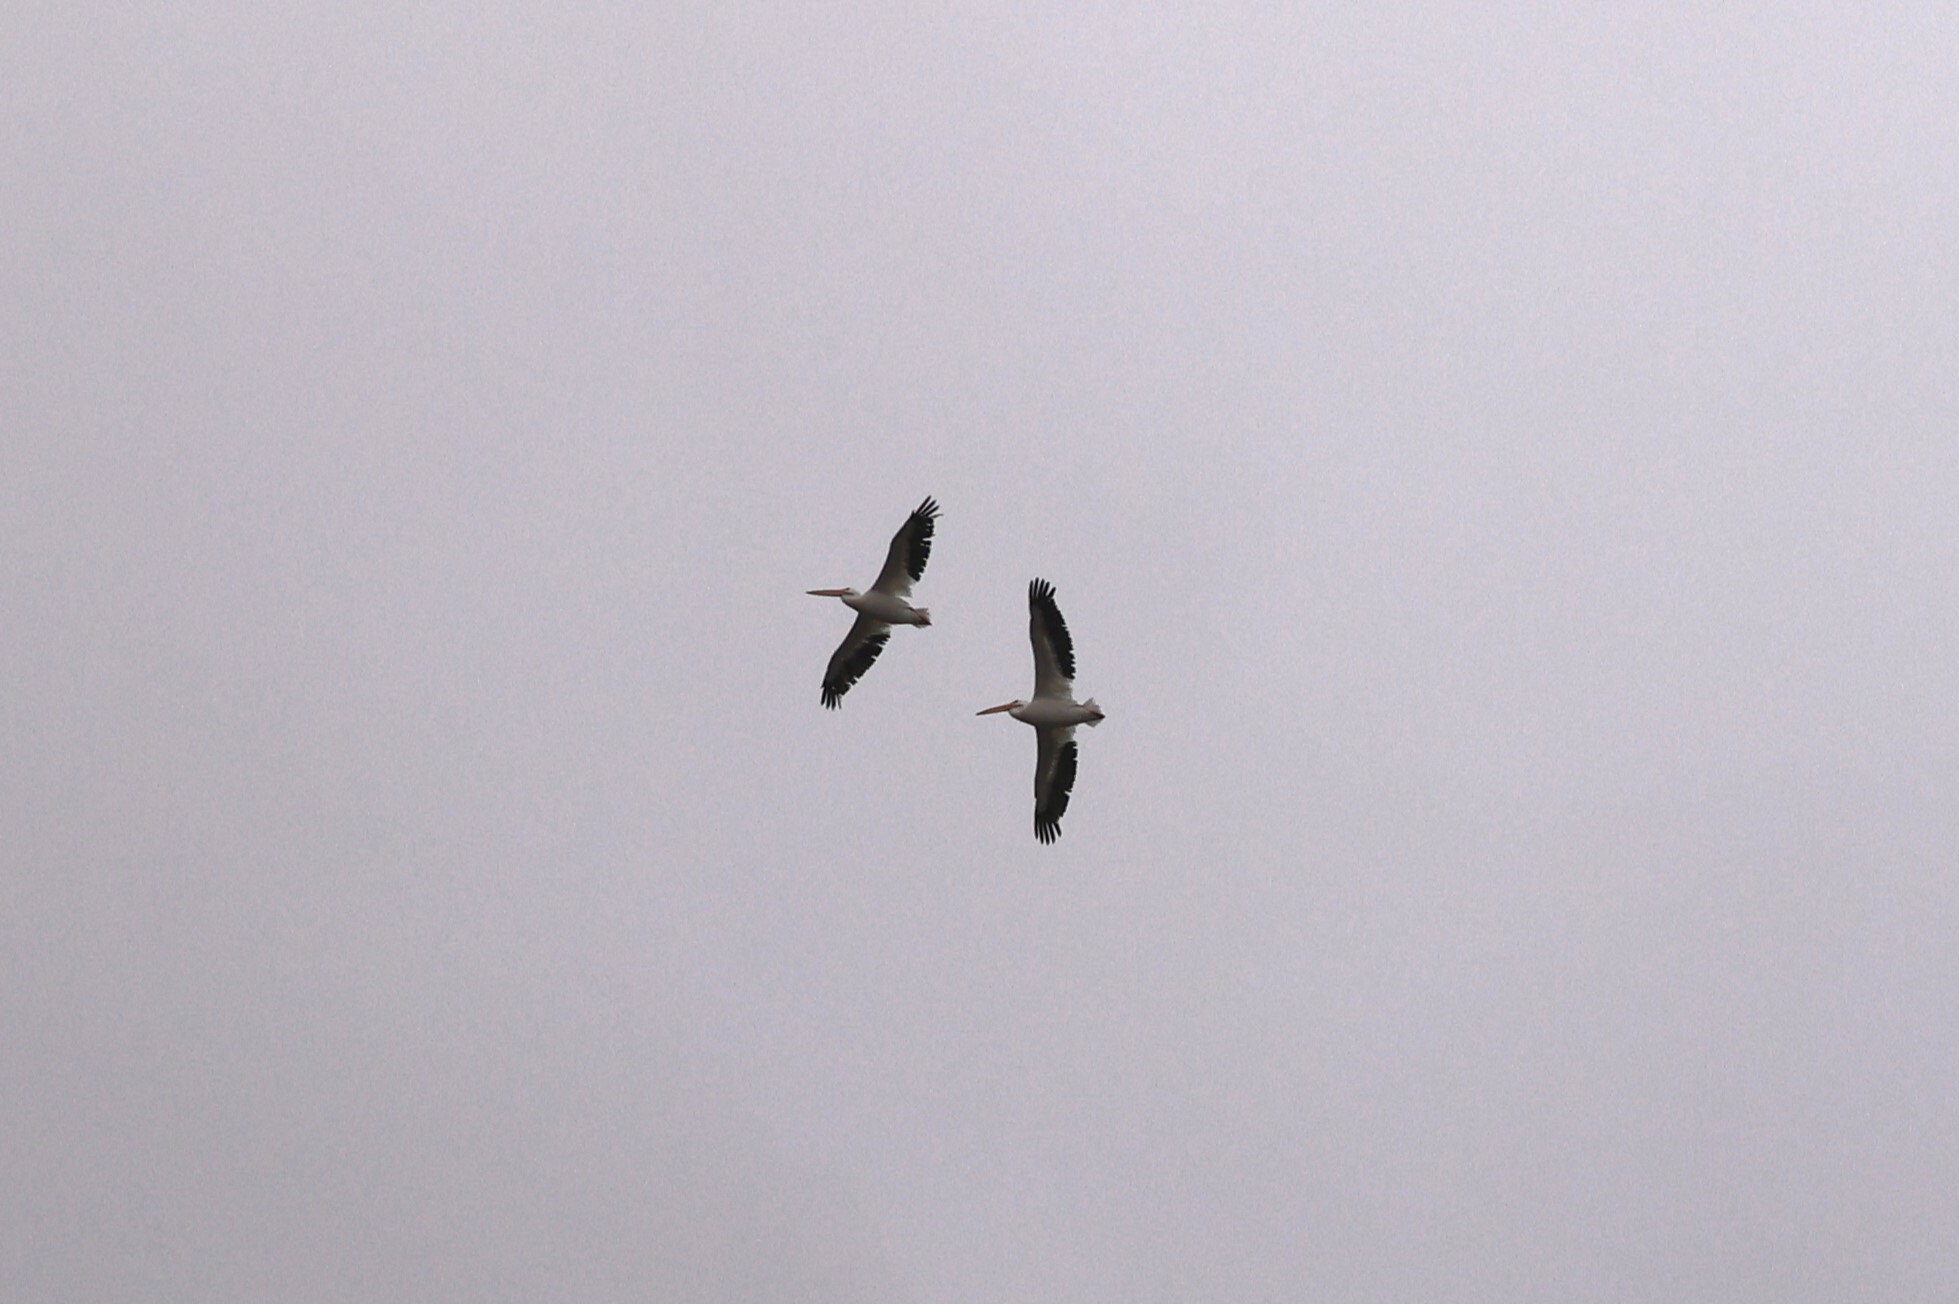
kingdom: Animalia
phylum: Chordata
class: Aves
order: Pelecaniformes
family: Pelecanidae
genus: Pelecanus
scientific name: Pelecanus erythrorhynchos
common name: American white pelican
